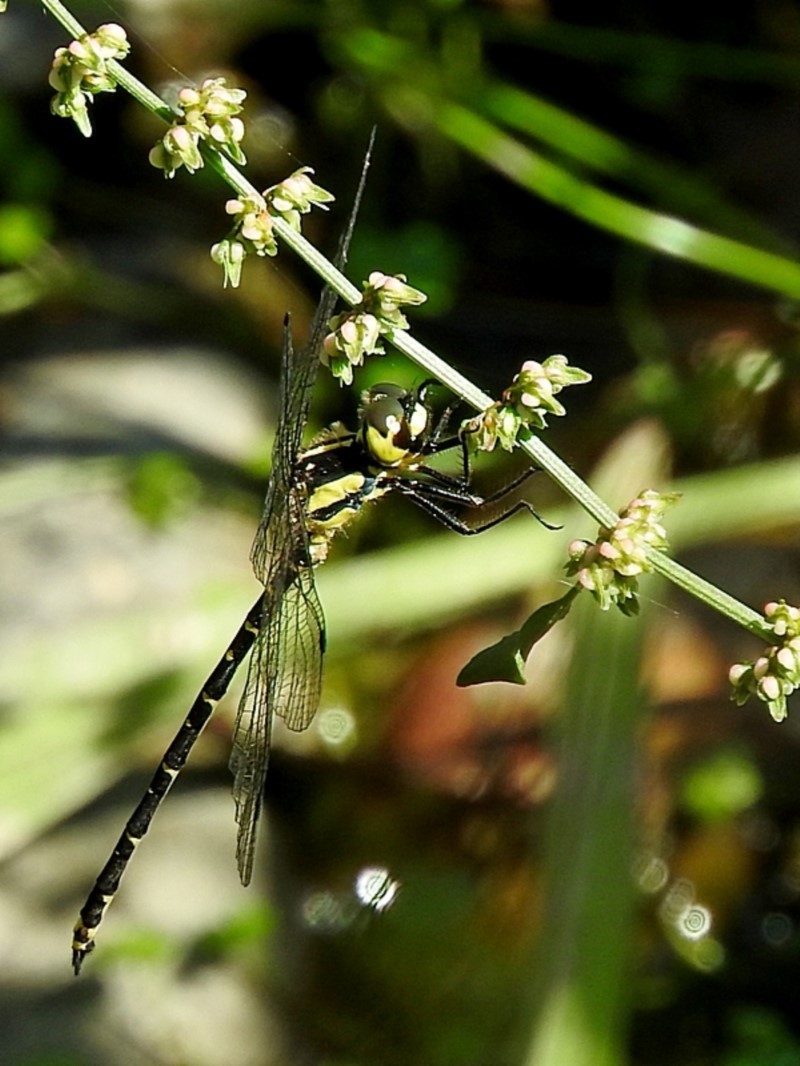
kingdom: Animalia
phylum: Arthropoda
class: Insecta
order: Odonata
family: Synthemistidae
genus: Choristhemis
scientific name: Choristhemis flavoterminata
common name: Yellow-tipped tigertail
